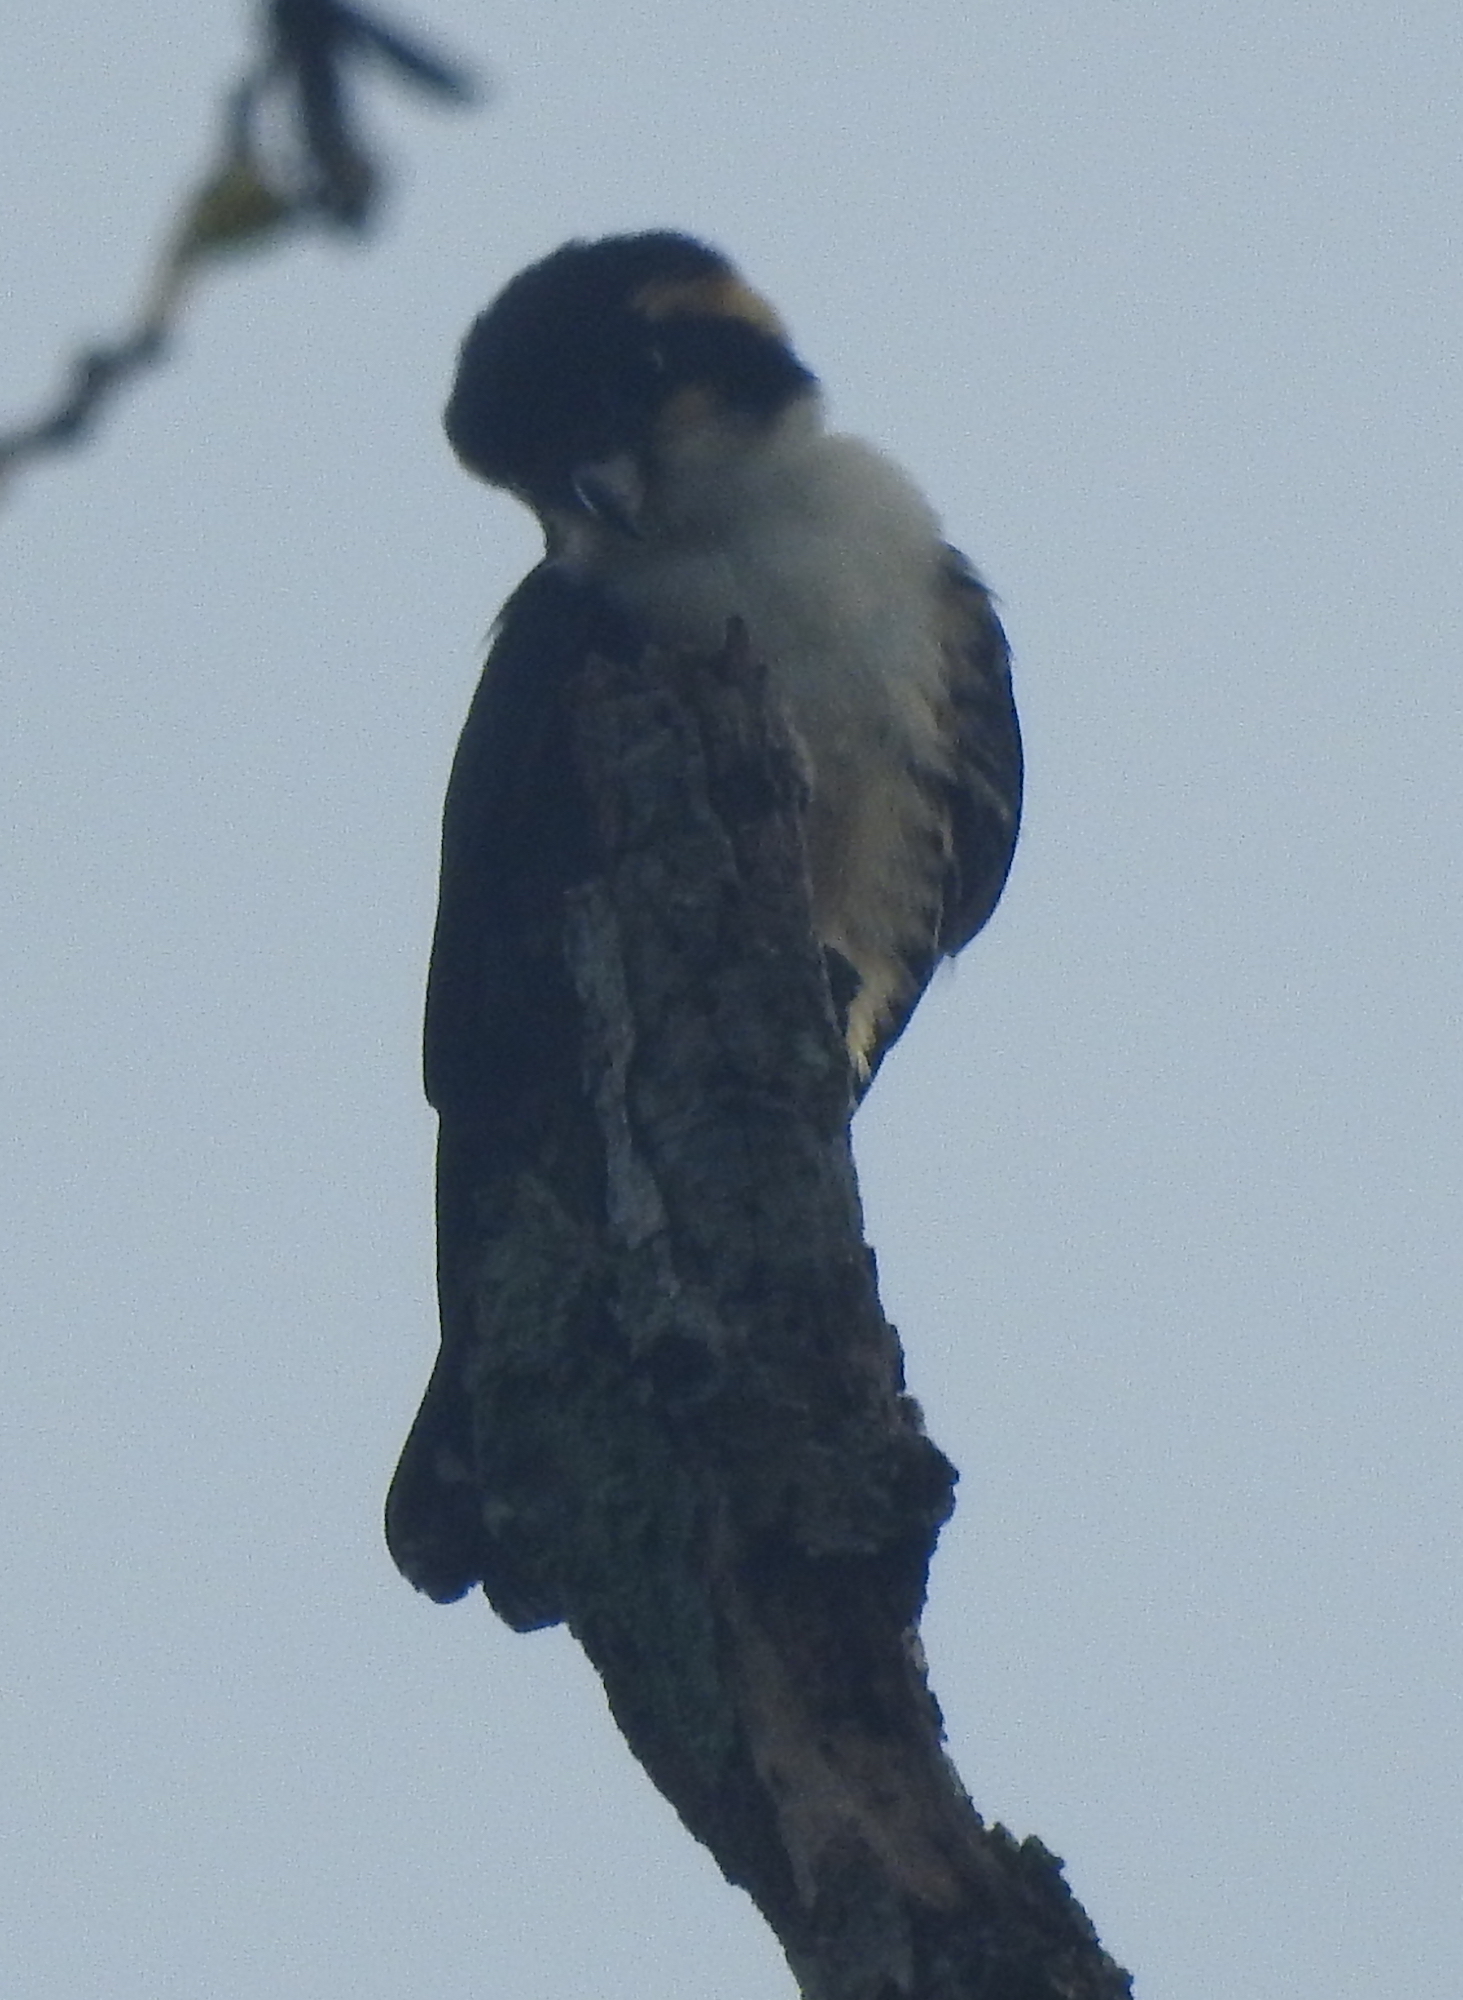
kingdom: Animalia
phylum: Chordata
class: Aves
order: Falconiformes
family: Falconidae
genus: Microhierax
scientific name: Microhierax fringillarius
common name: Black-thighed falconet
